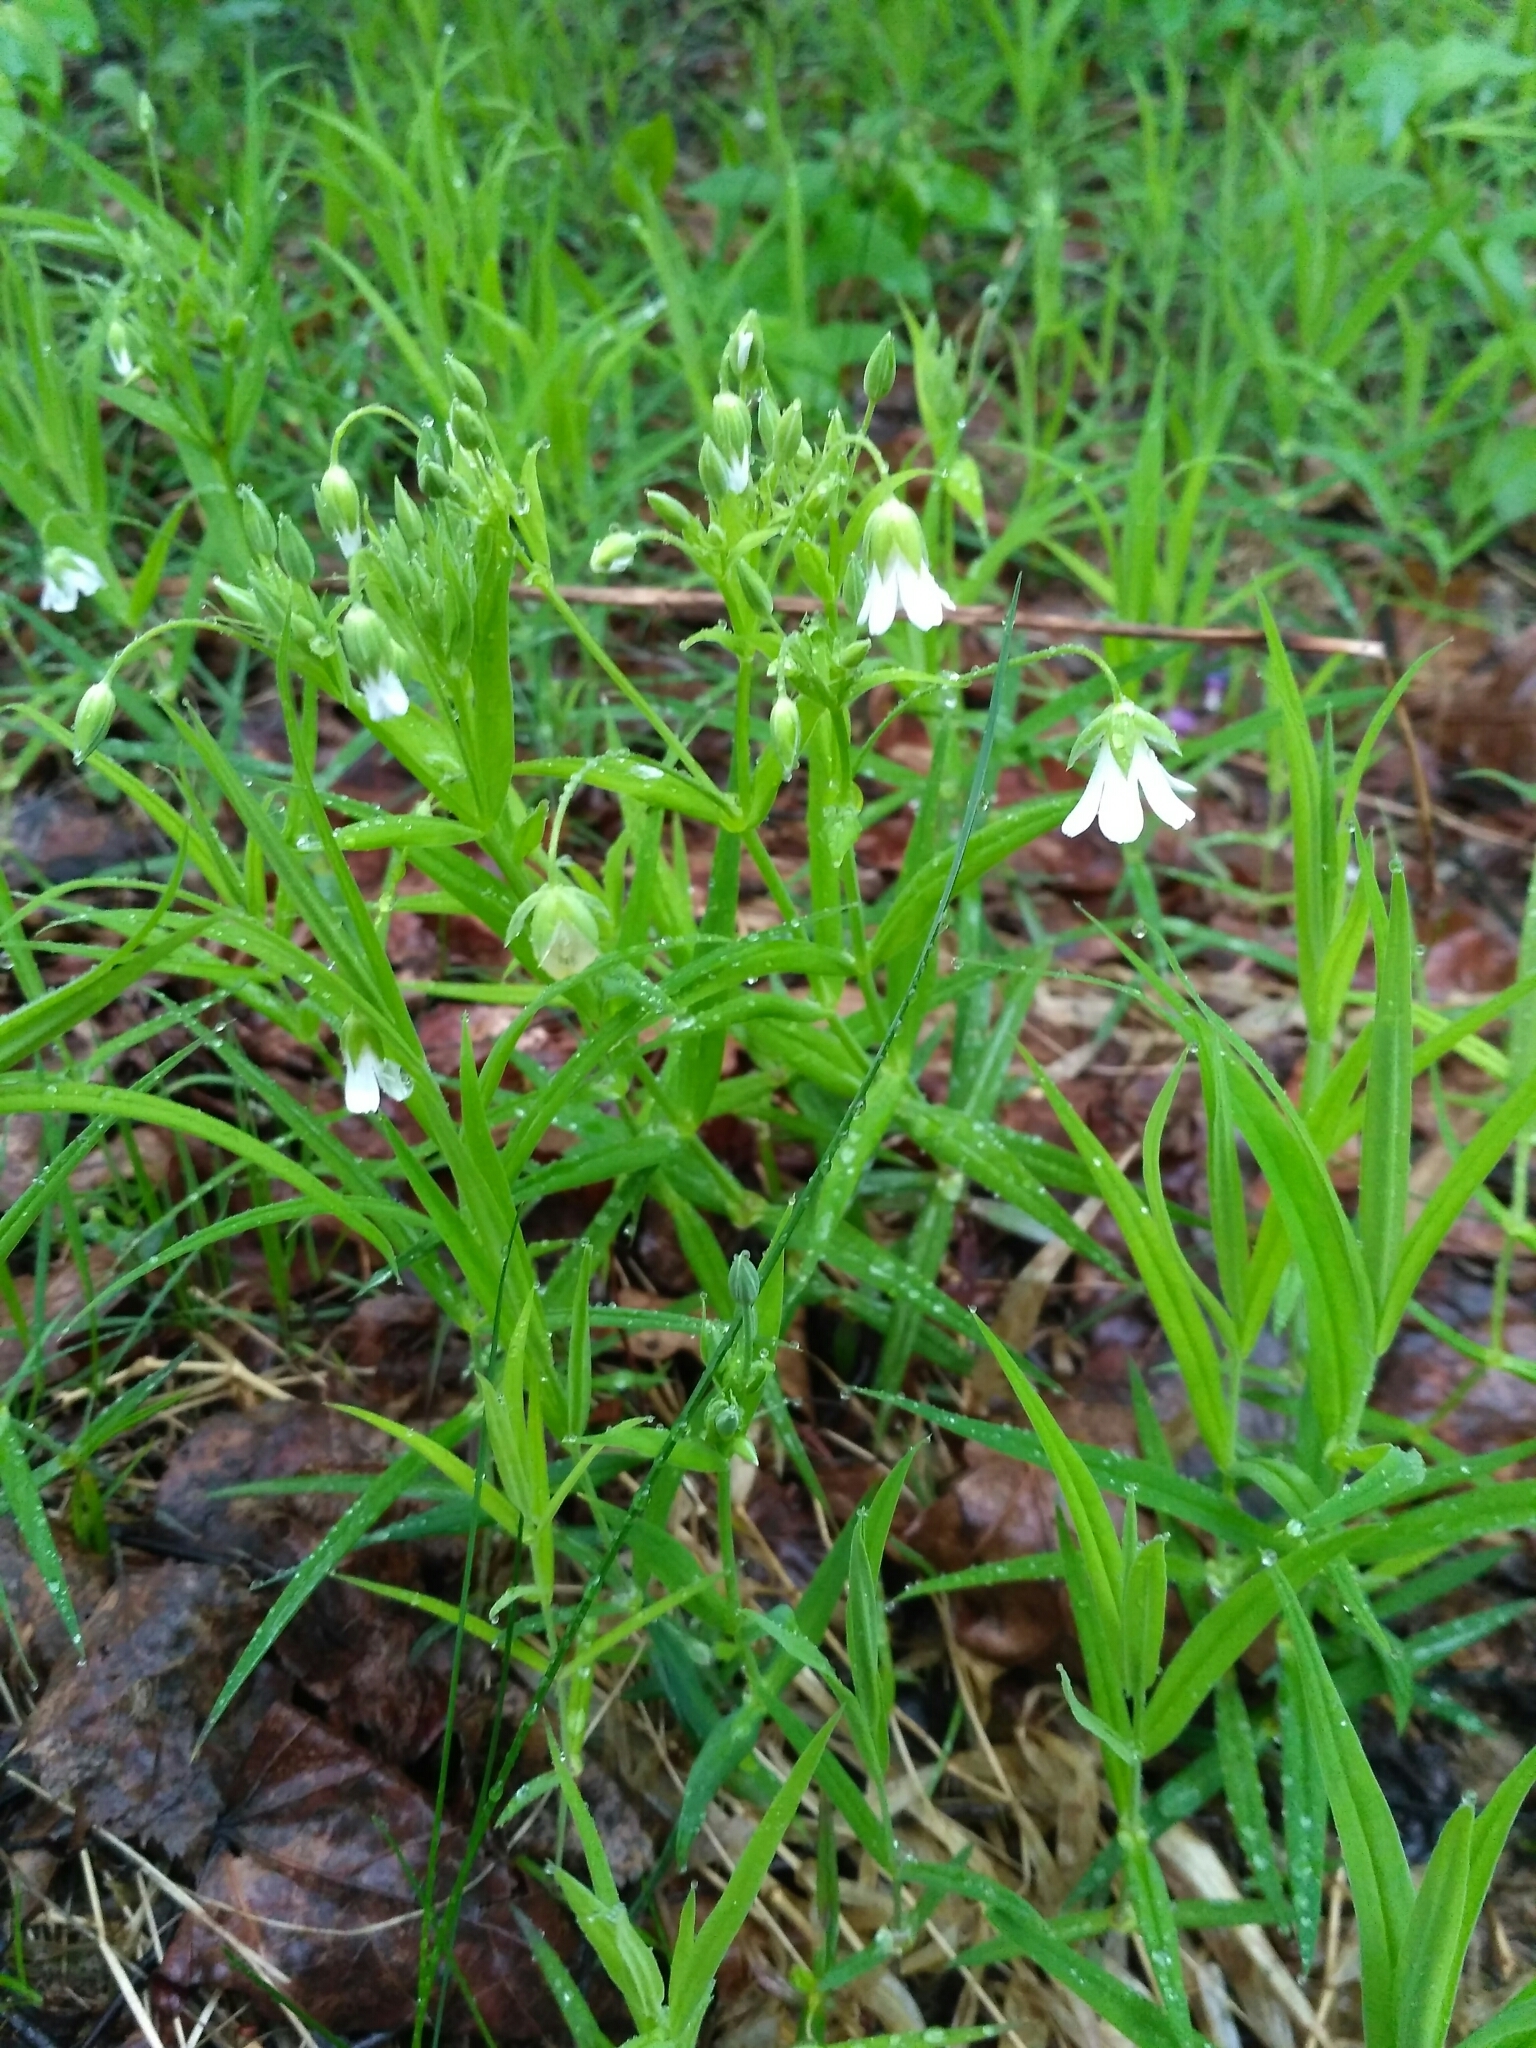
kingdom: Plantae
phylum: Tracheophyta
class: Magnoliopsida
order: Caryophyllales
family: Caryophyllaceae
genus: Rabelera
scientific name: Rabelera holostea
